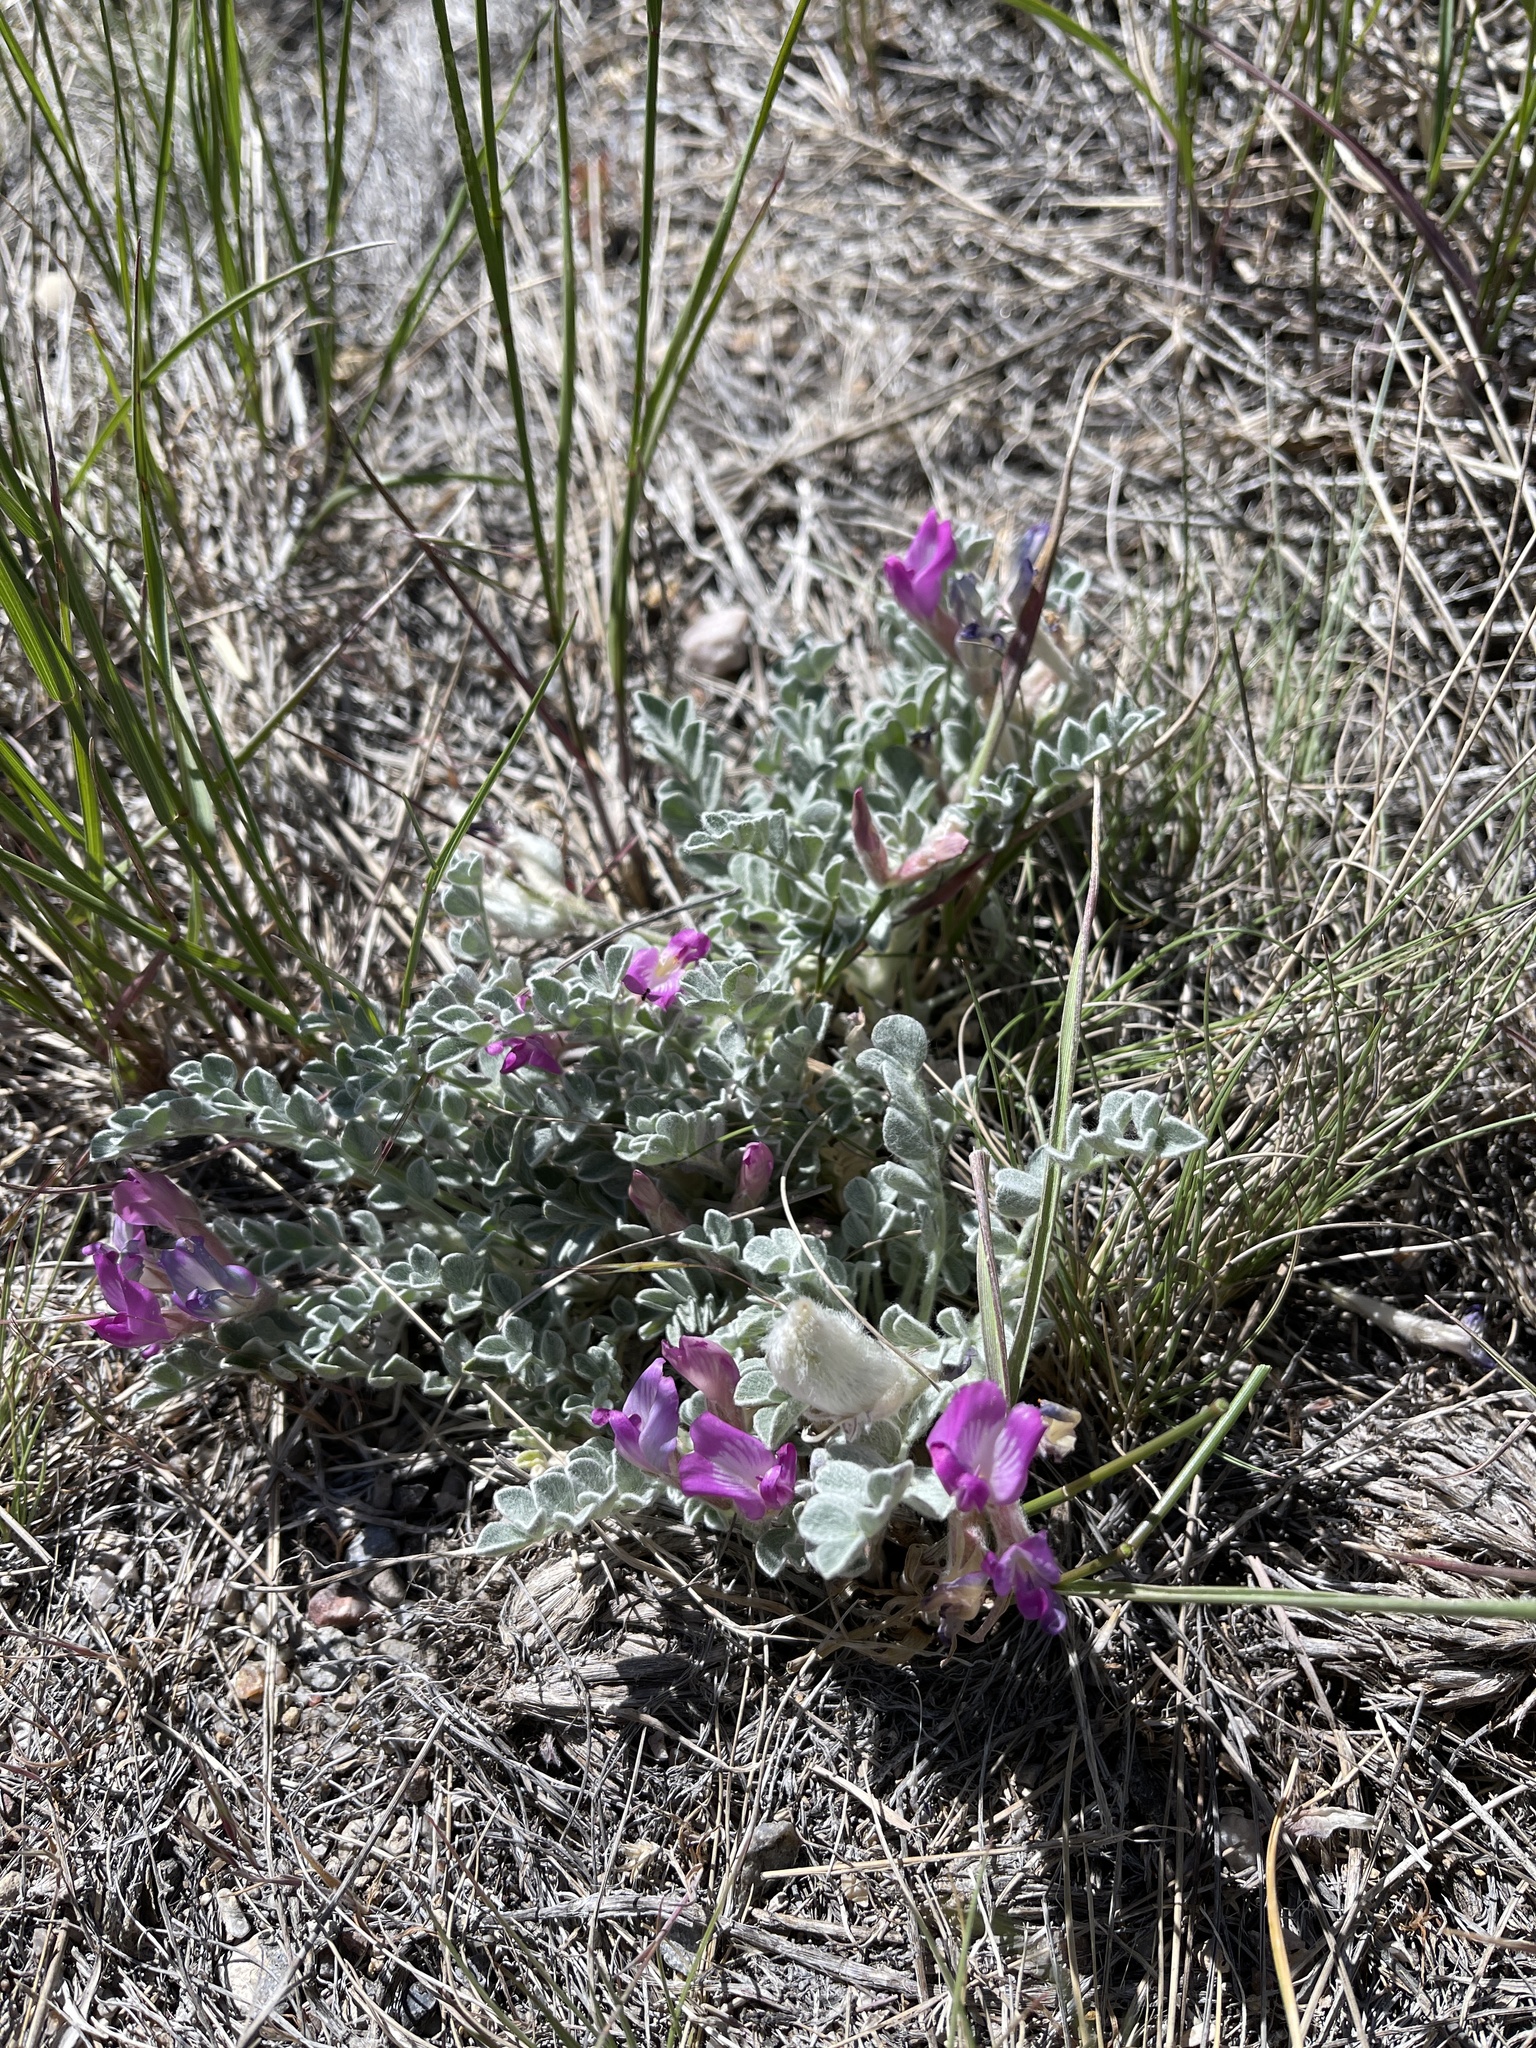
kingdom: Plantae
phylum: Tracheophyta
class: Magnoliopsida
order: Fabales
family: Fabaceae
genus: Astragalus
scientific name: Astragalus utahensis
